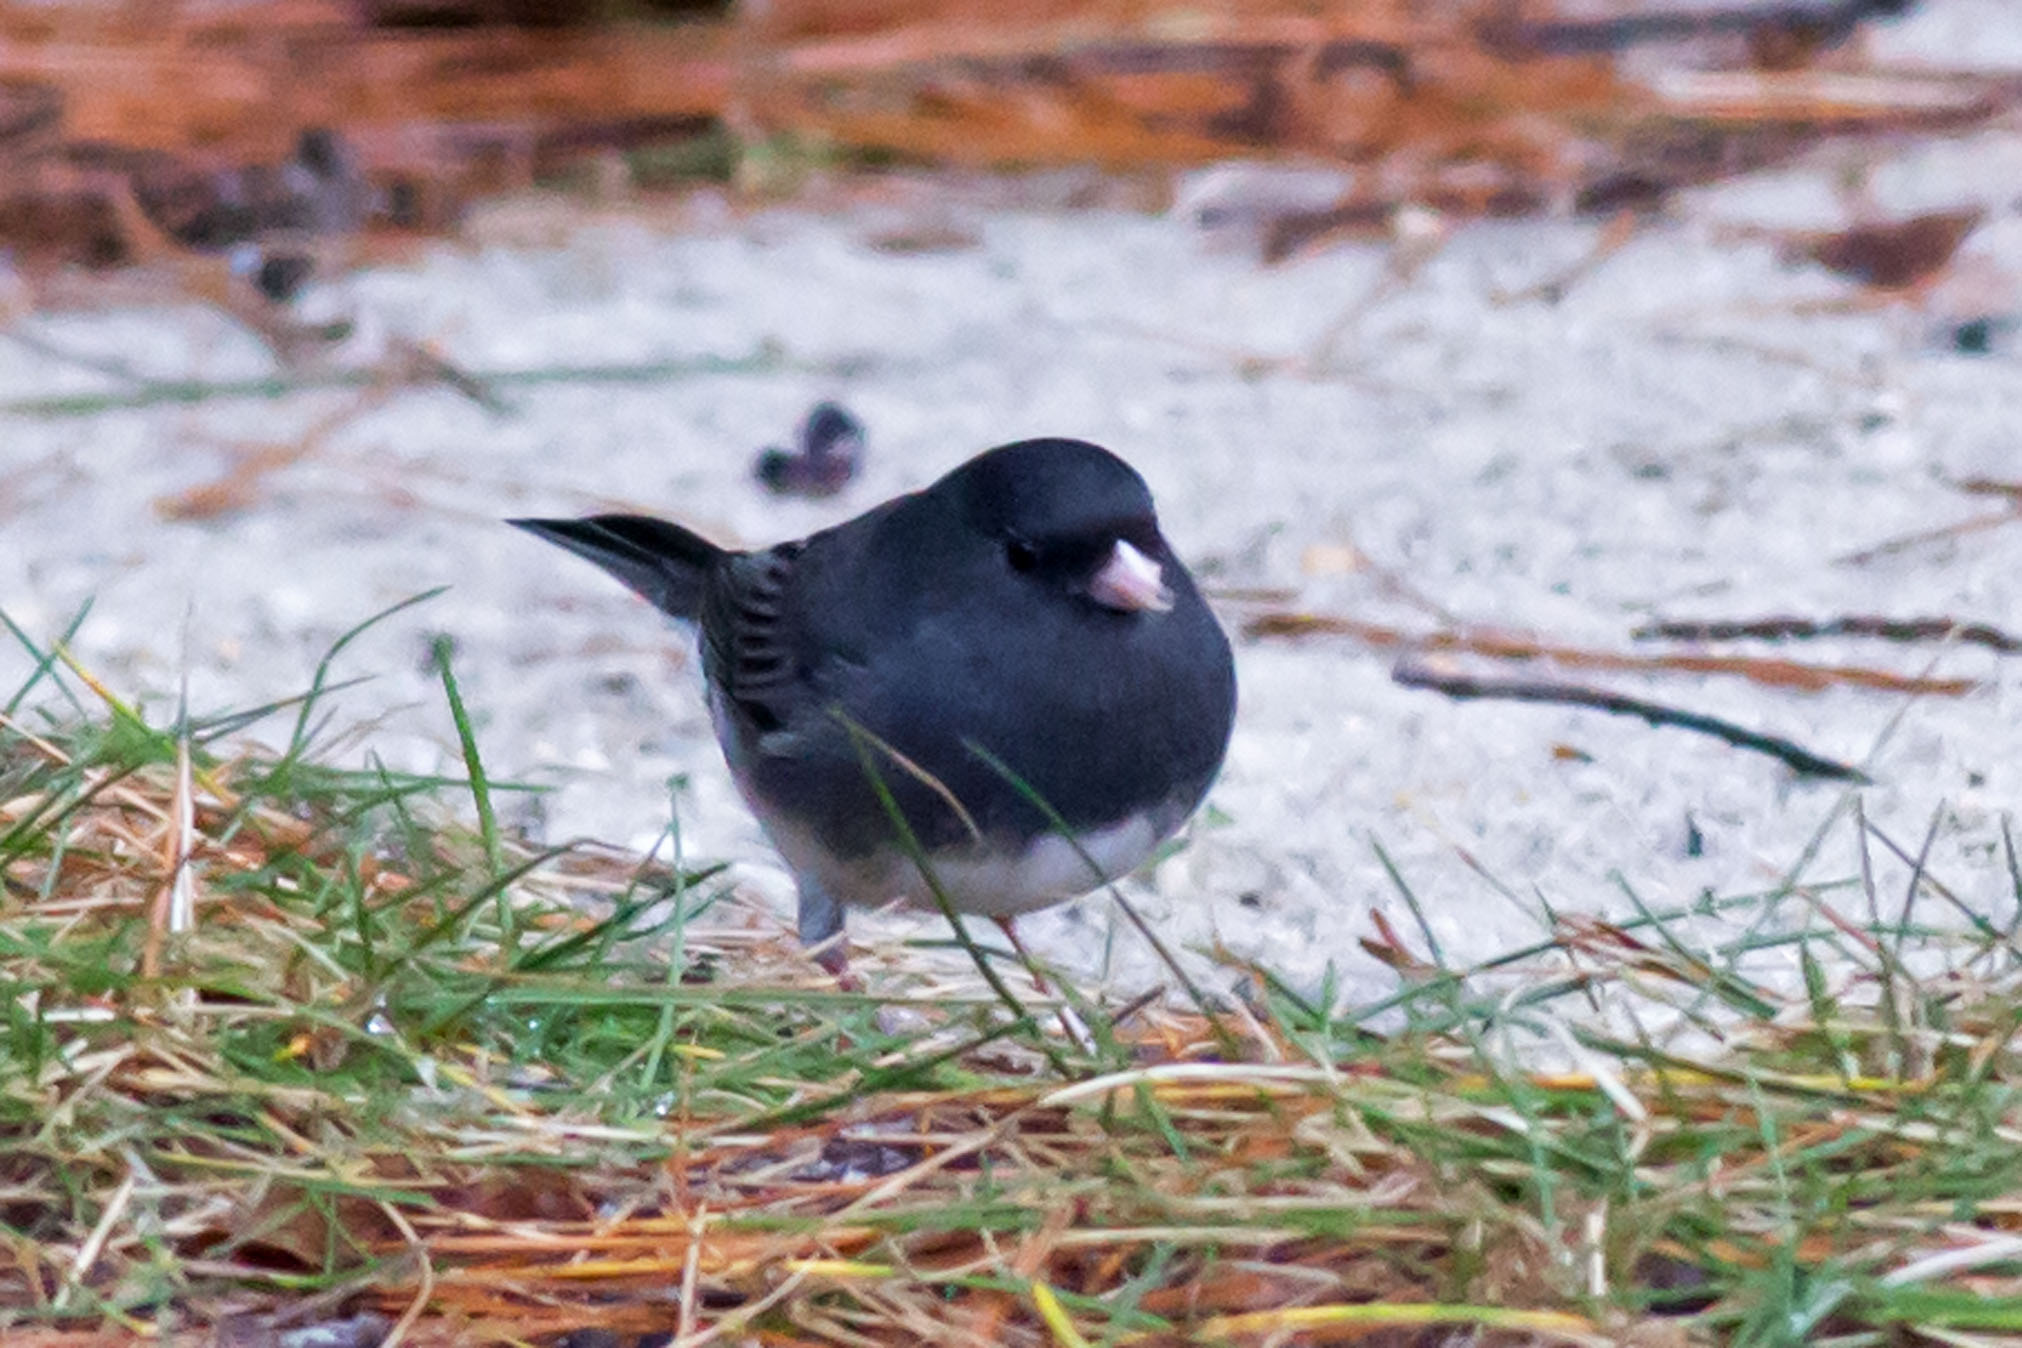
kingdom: Animalia
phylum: Chordata
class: Aves
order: Passeriformes
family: Passerellidae
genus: Junco
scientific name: Junco hyemalis
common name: Dark-eyed junco
